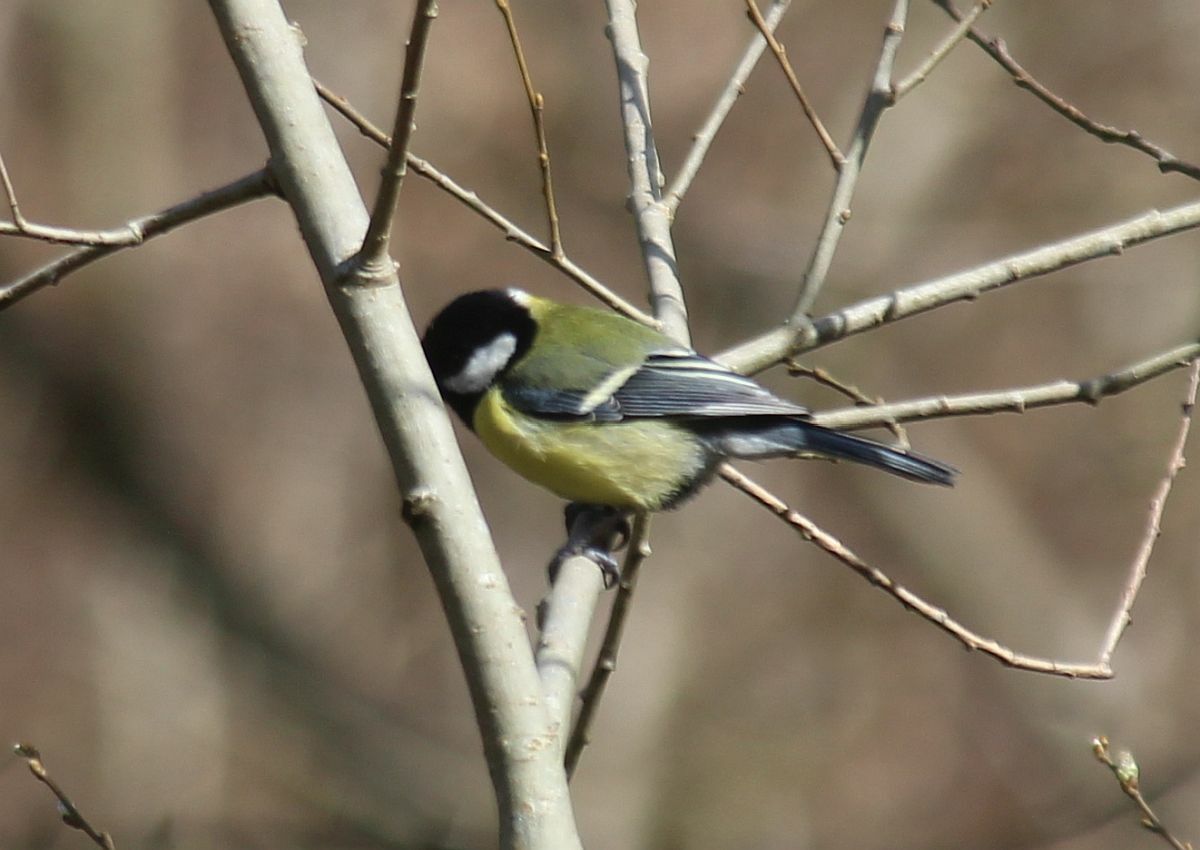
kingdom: Animalia
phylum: Chordata
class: Aves
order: Passeriformes
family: Paridae
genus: Parus
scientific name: Parus major
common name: Great tit
